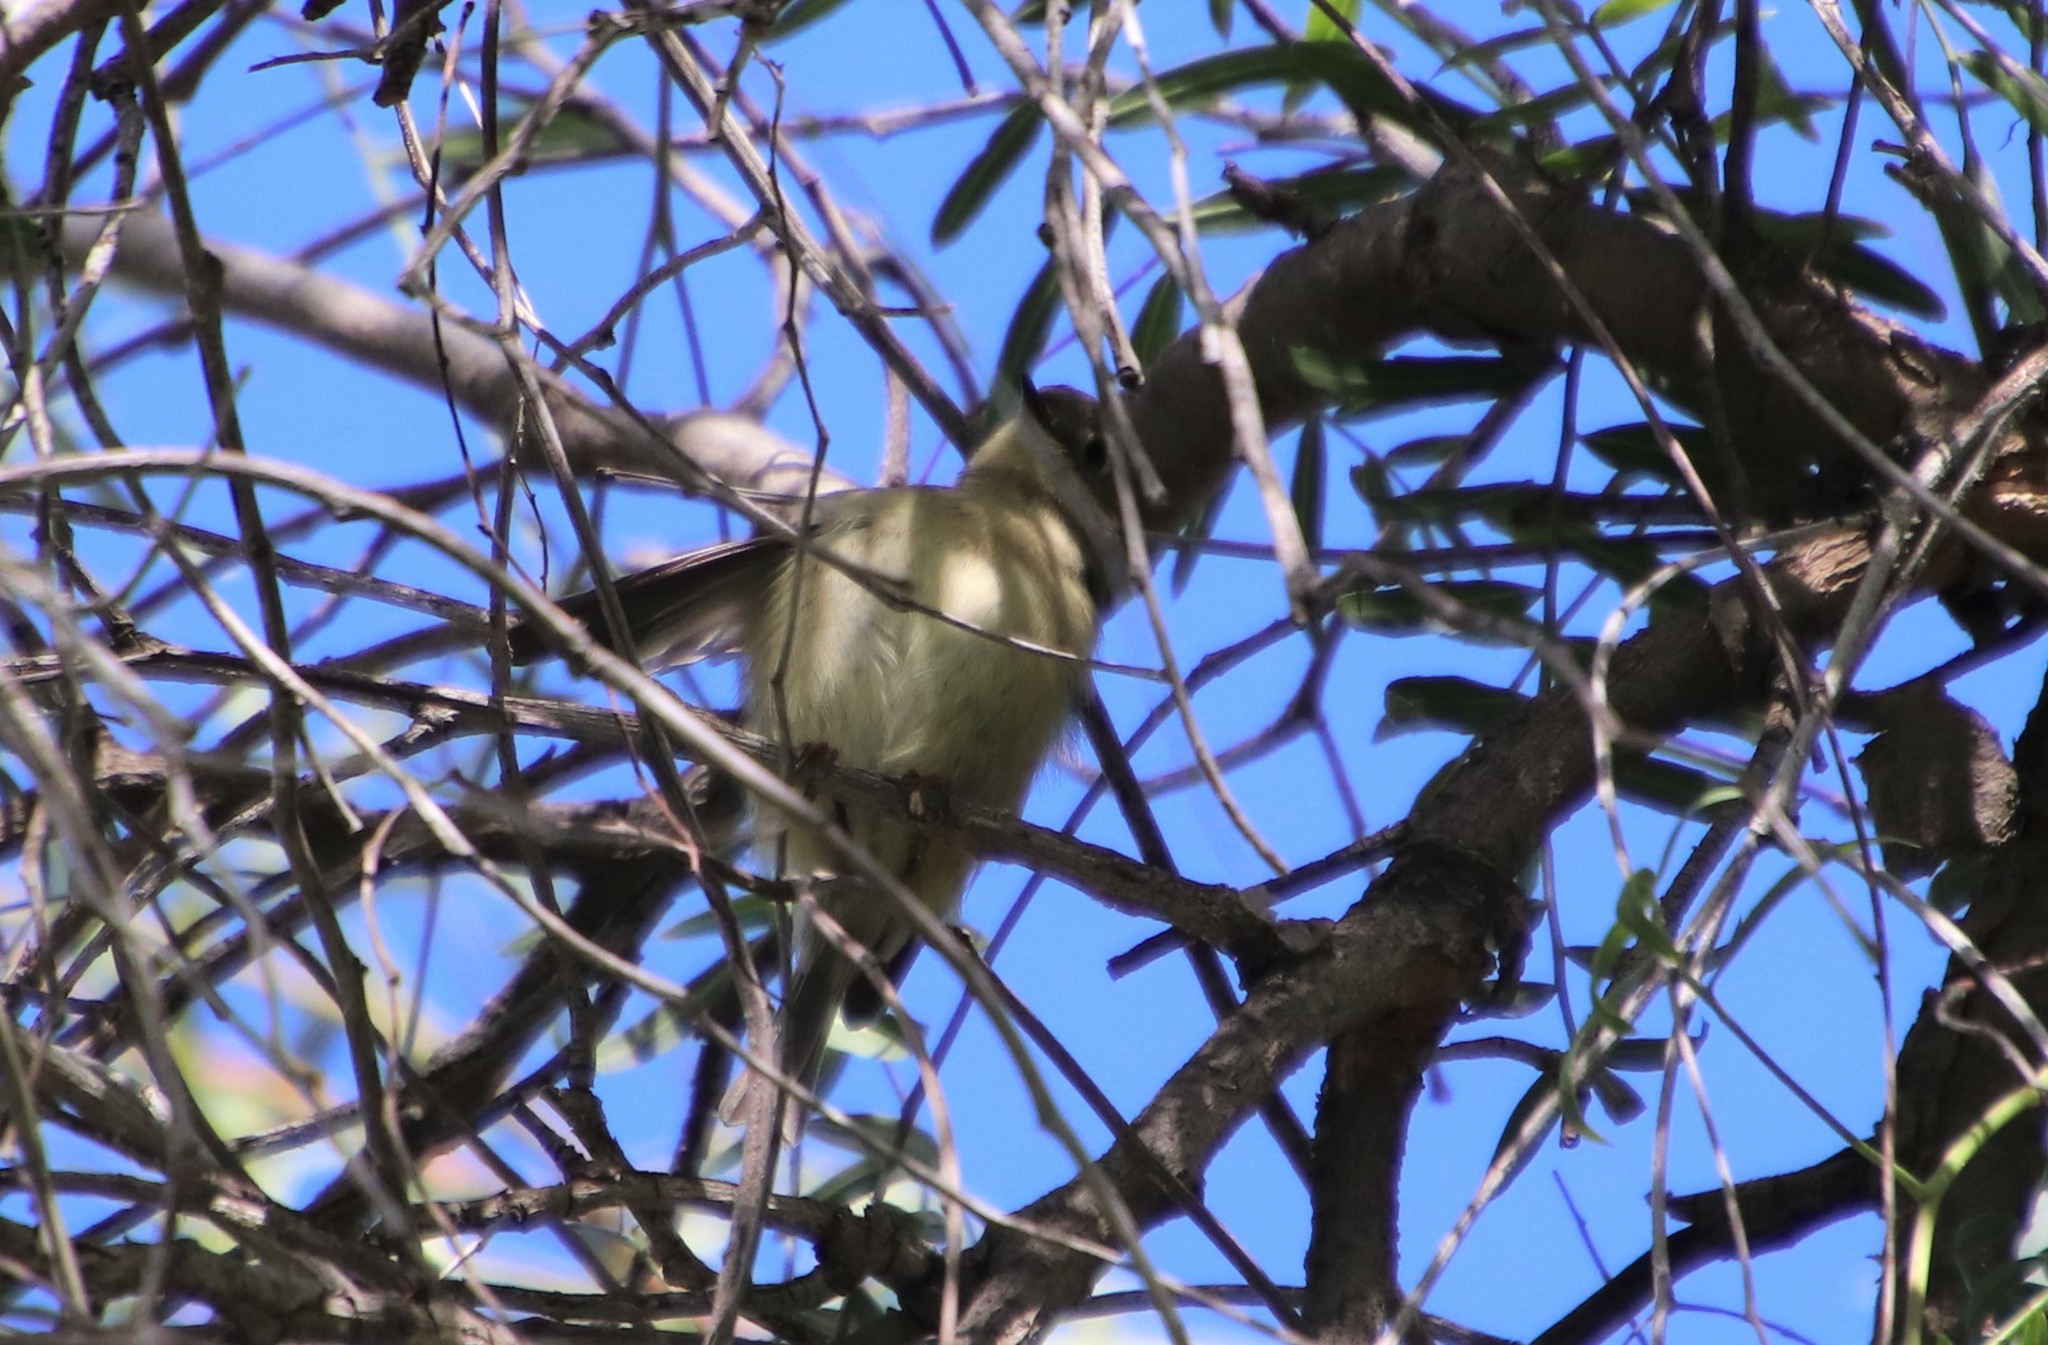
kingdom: Animalia
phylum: Chordata
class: Aves
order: Passeriformes
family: Regulidae
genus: Regulus
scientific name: Regulus calendula
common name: Ruby-crowned kinglet
